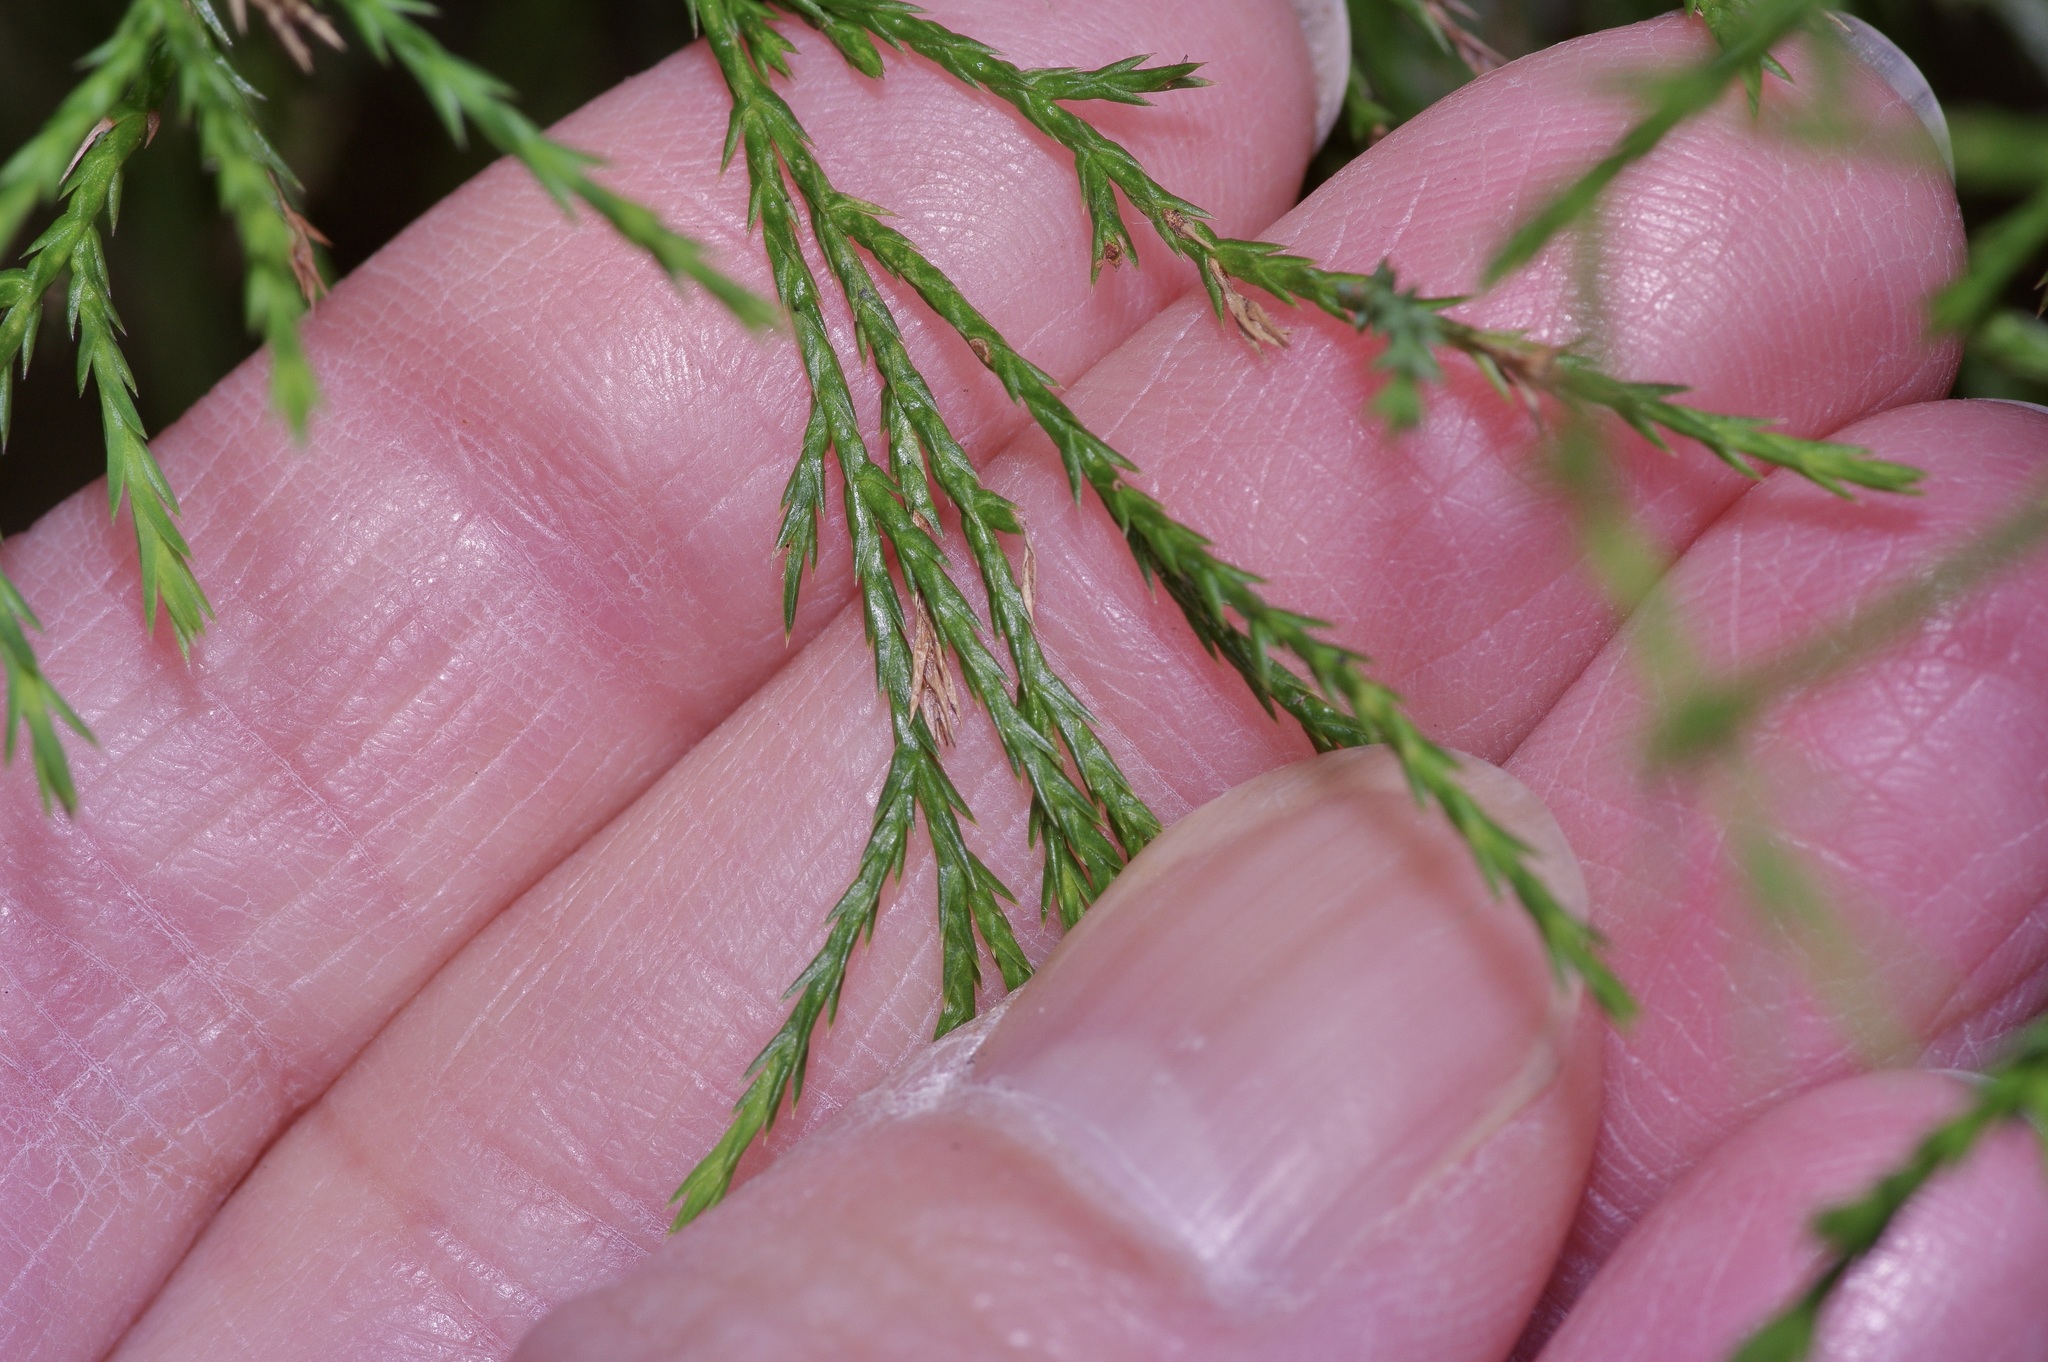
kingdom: Plantae
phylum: Tracheophyta
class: Pinopsida
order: Pinales
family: Cupressaceae
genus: Juniperus
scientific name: Juniperus virginiana
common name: Red juniper
